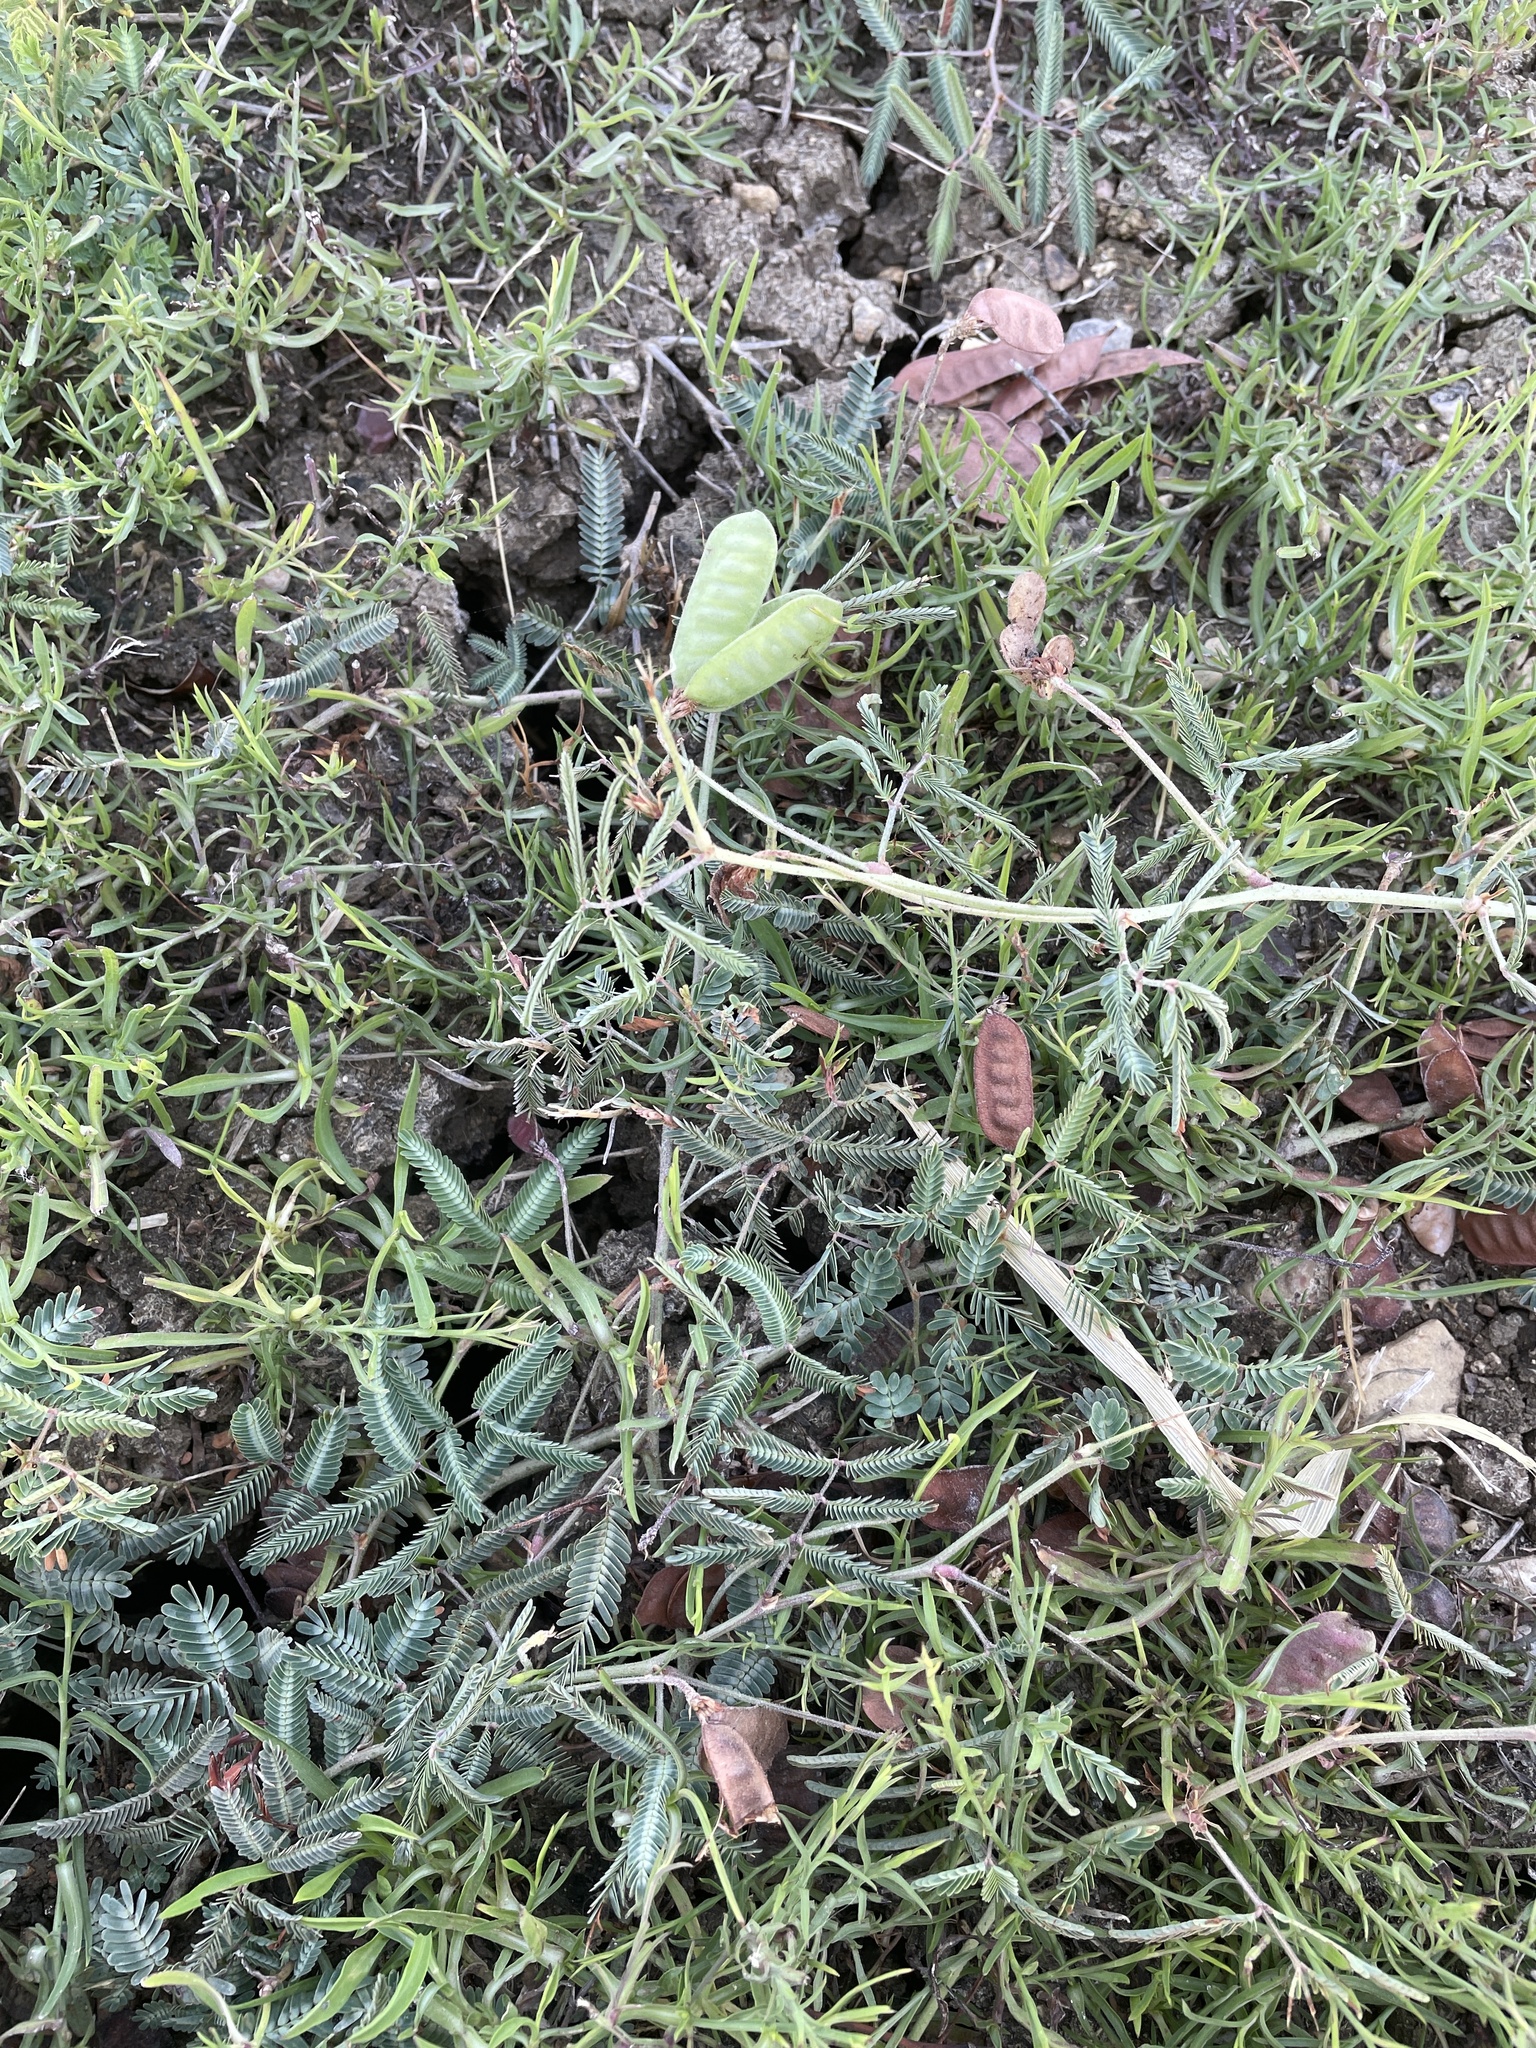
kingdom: Plantae
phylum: Tracheophyta
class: Magnoliopsida
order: Fabales
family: Fabaceae
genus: Neptunia
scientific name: Neptunia pubescens
